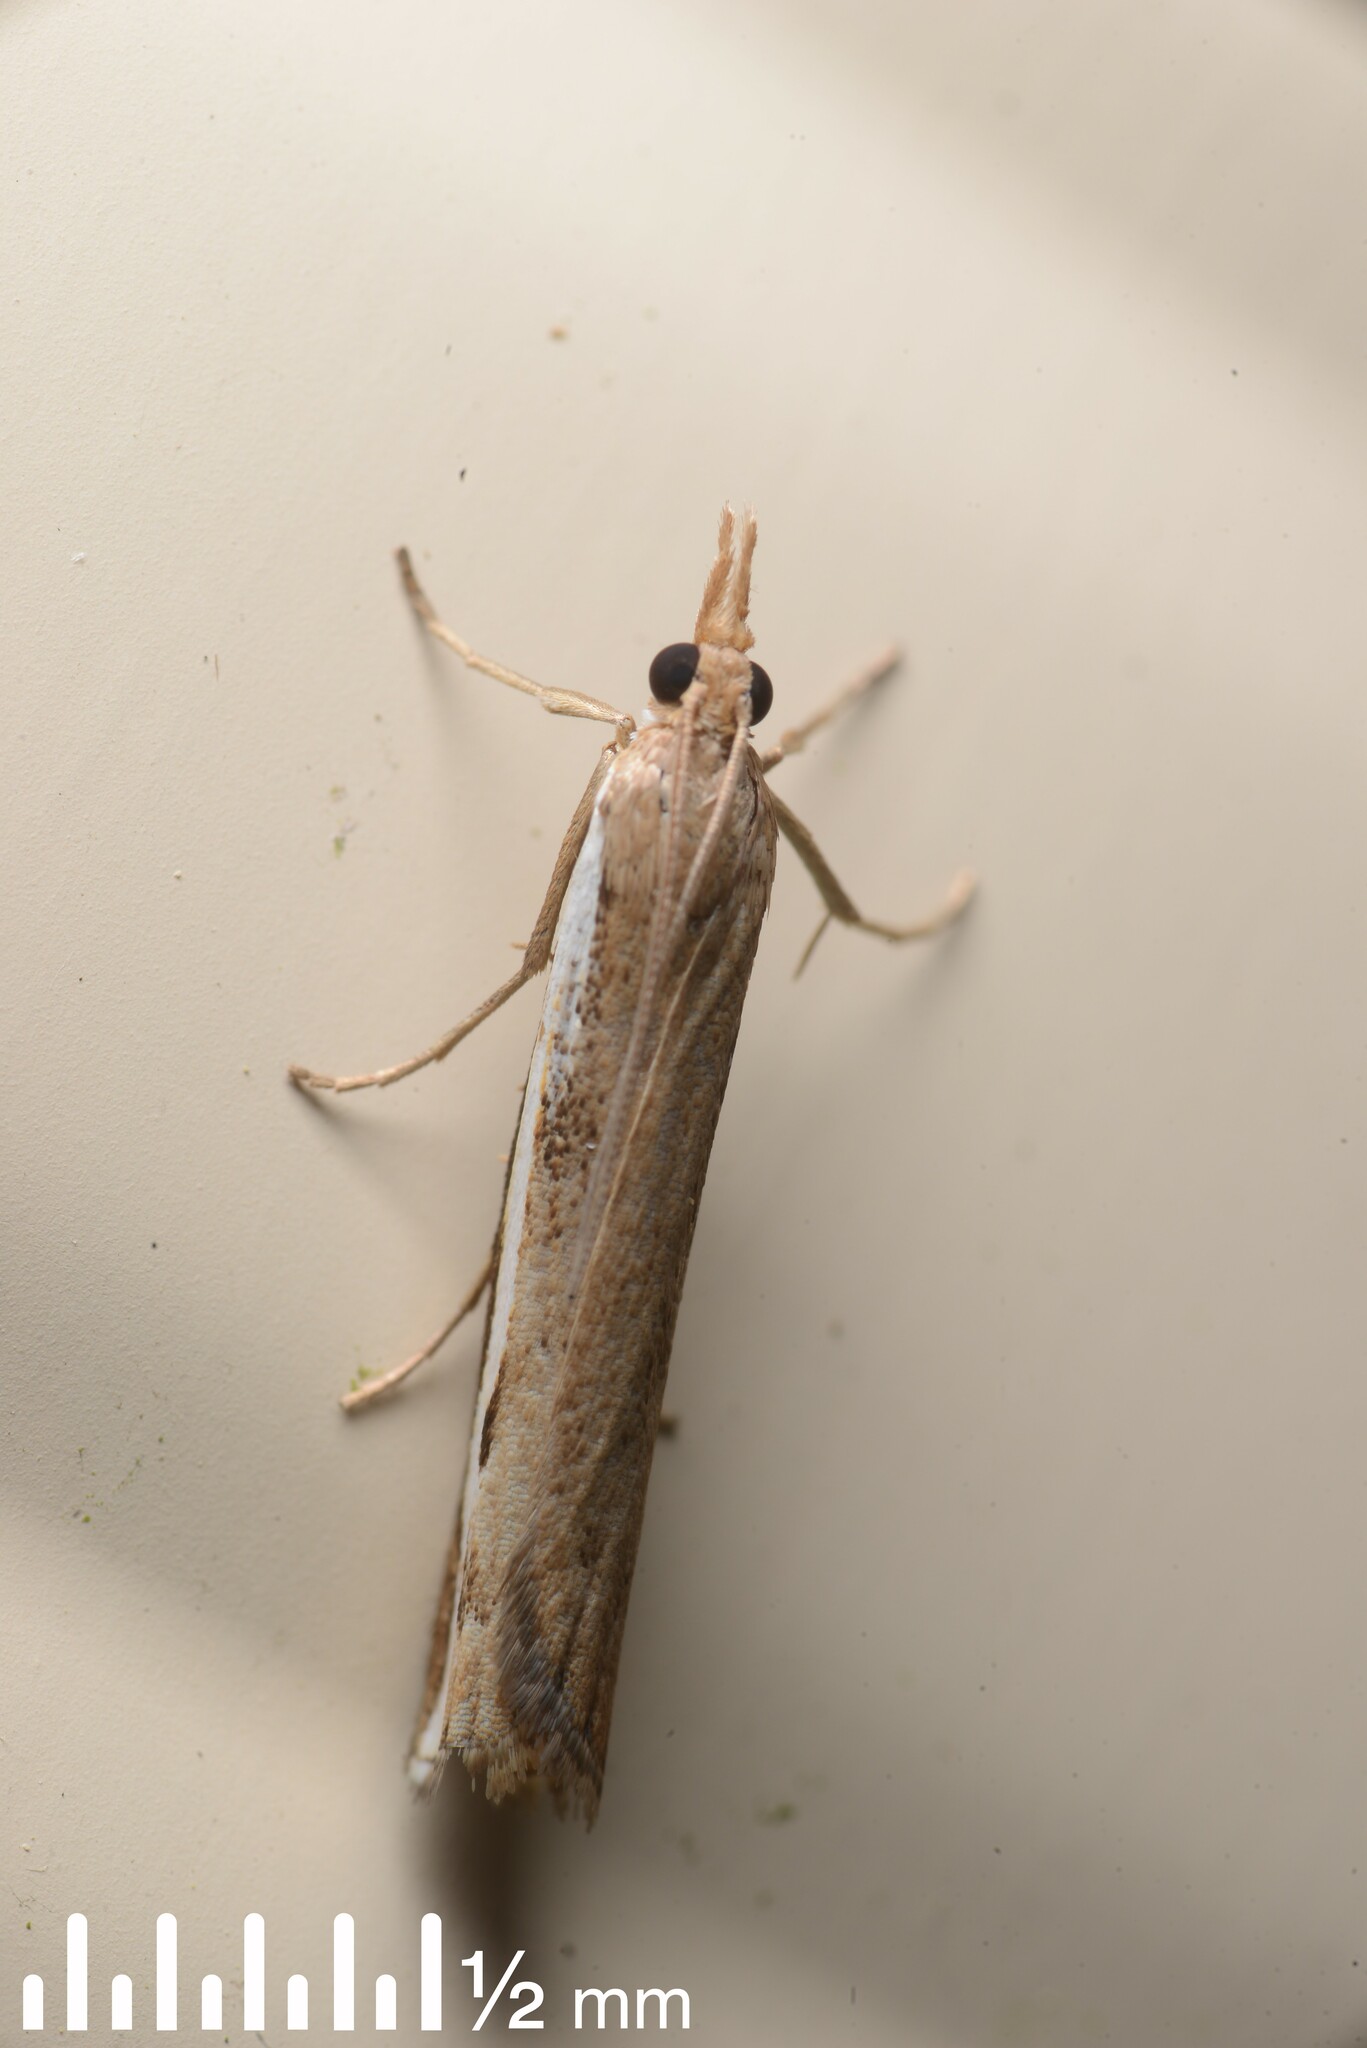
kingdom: Animalia
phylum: Arthropoda
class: Insecta
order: Lepidoptera
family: Crambidae
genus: Orocrambus
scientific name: Orocrambus flexuosellus
